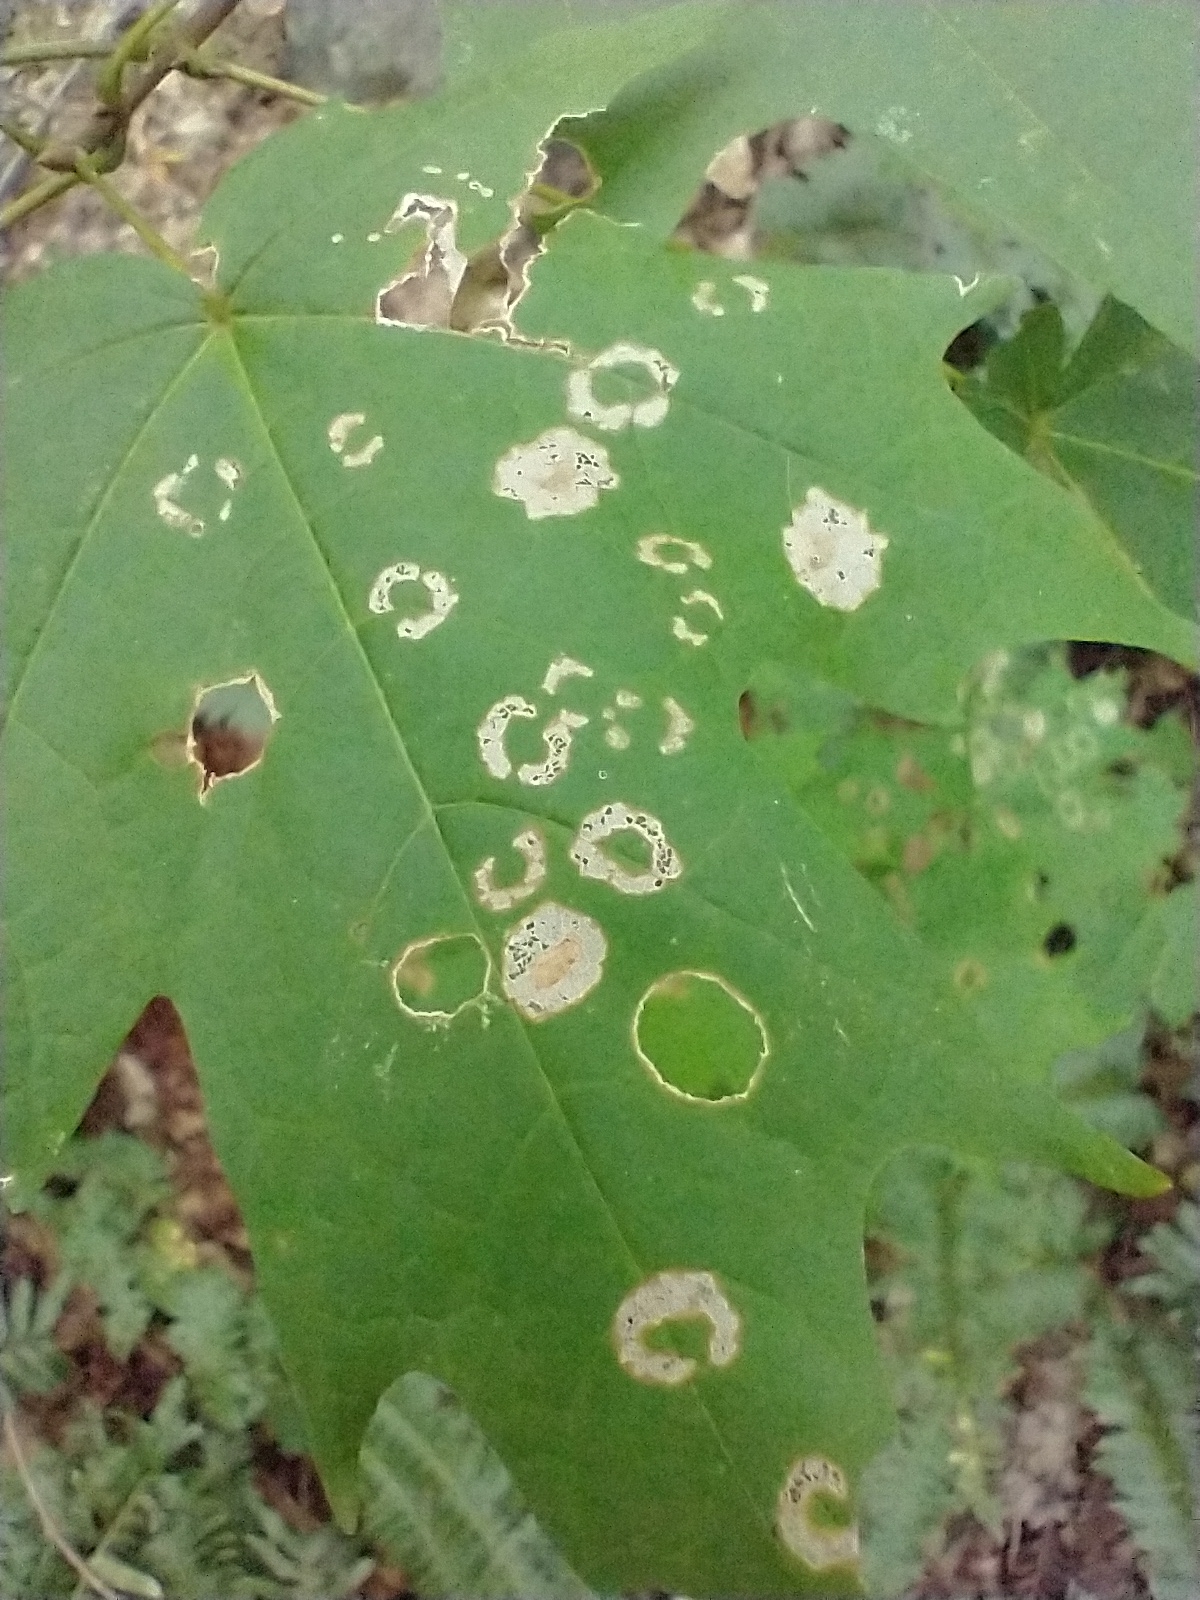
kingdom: Animalia
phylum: Arthropoda
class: Insecta
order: Lepidoptera
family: Incurvariidae
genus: Paraclemensia
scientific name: Paraclemensia acerifoliella
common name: Maple leafcutter
